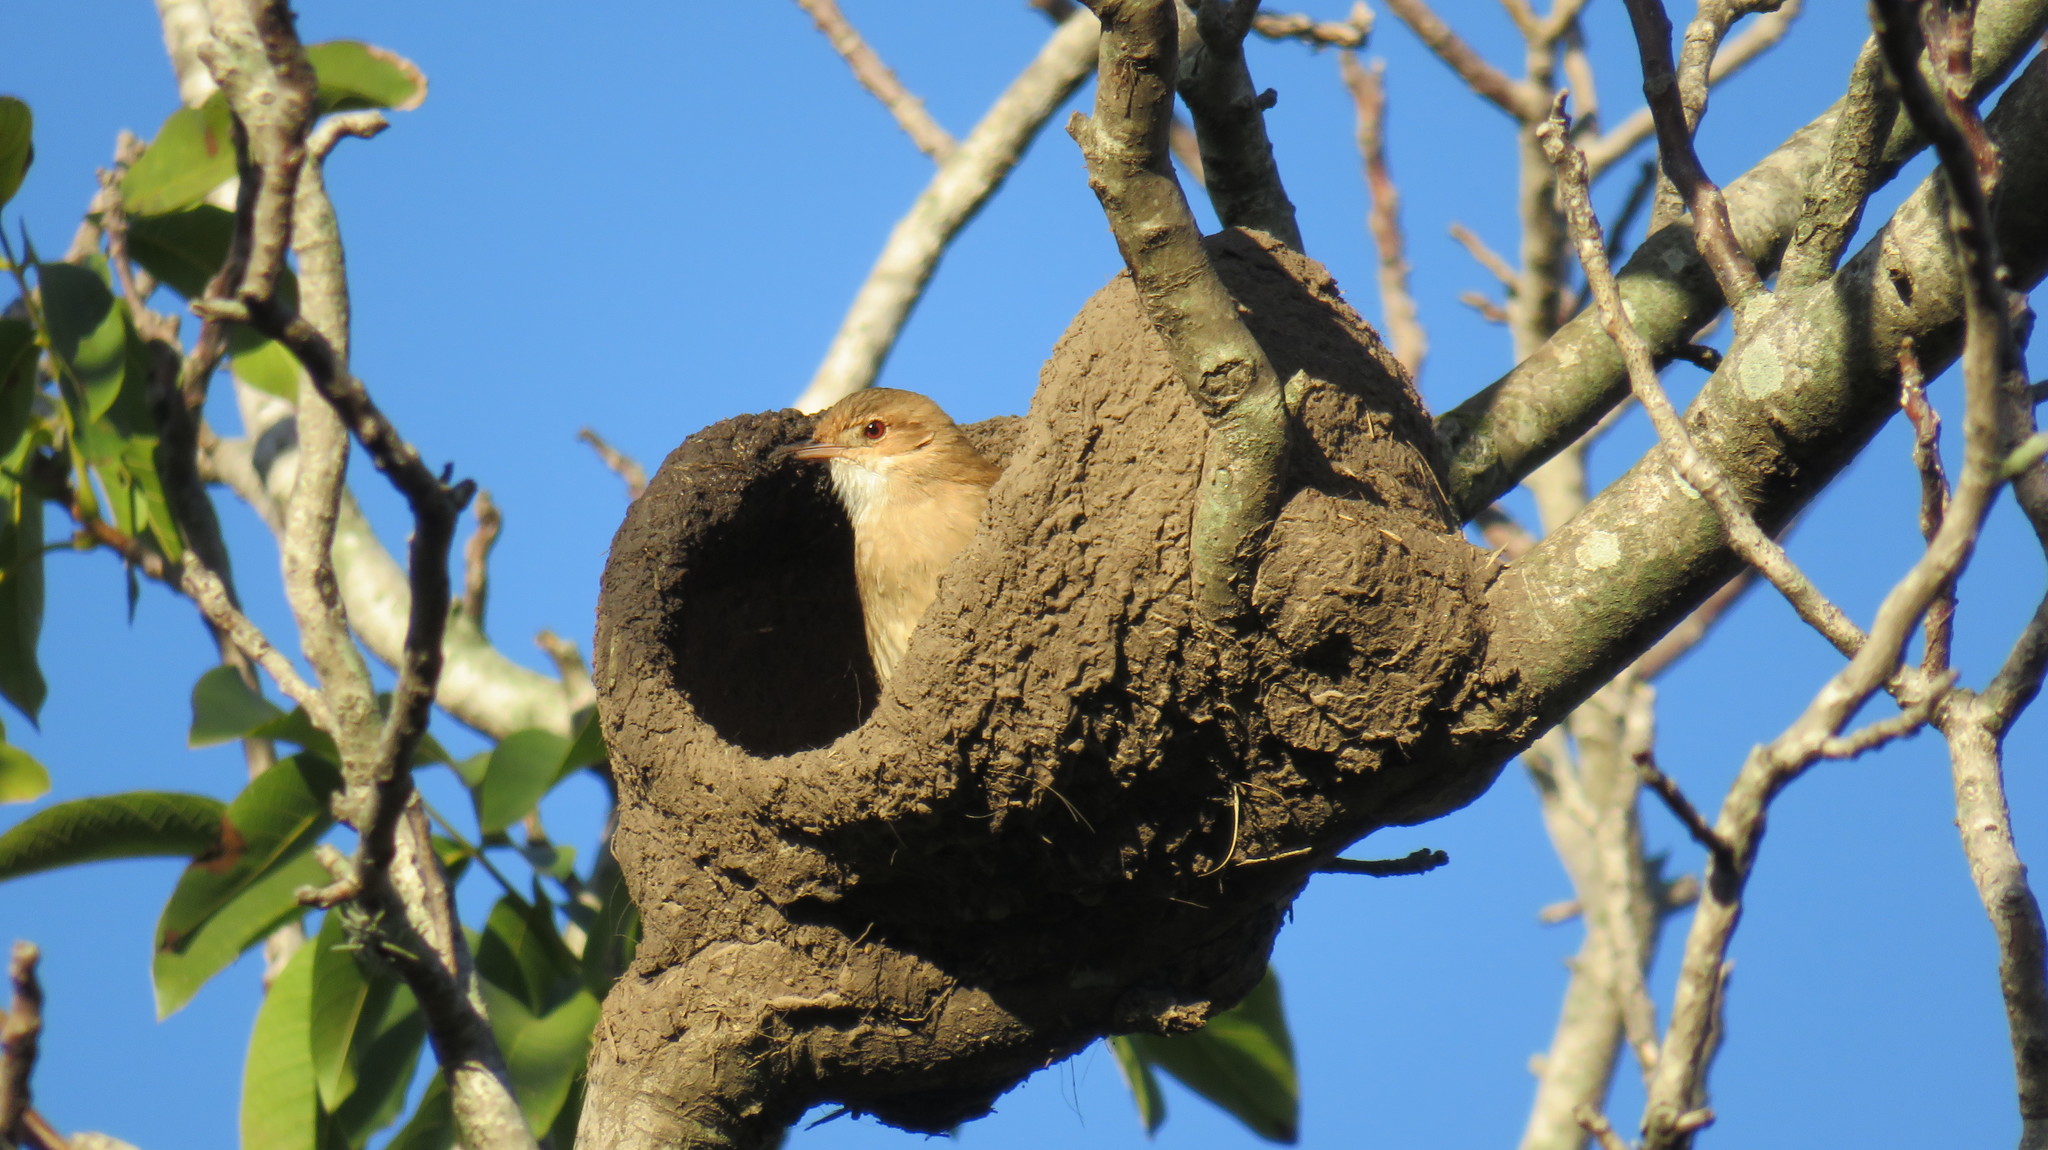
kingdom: Animalia
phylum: Chordata
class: Aves
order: Passeriformes
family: Furnariidae
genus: Furnarius
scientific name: Furnarius rufus
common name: Rufous hornero
